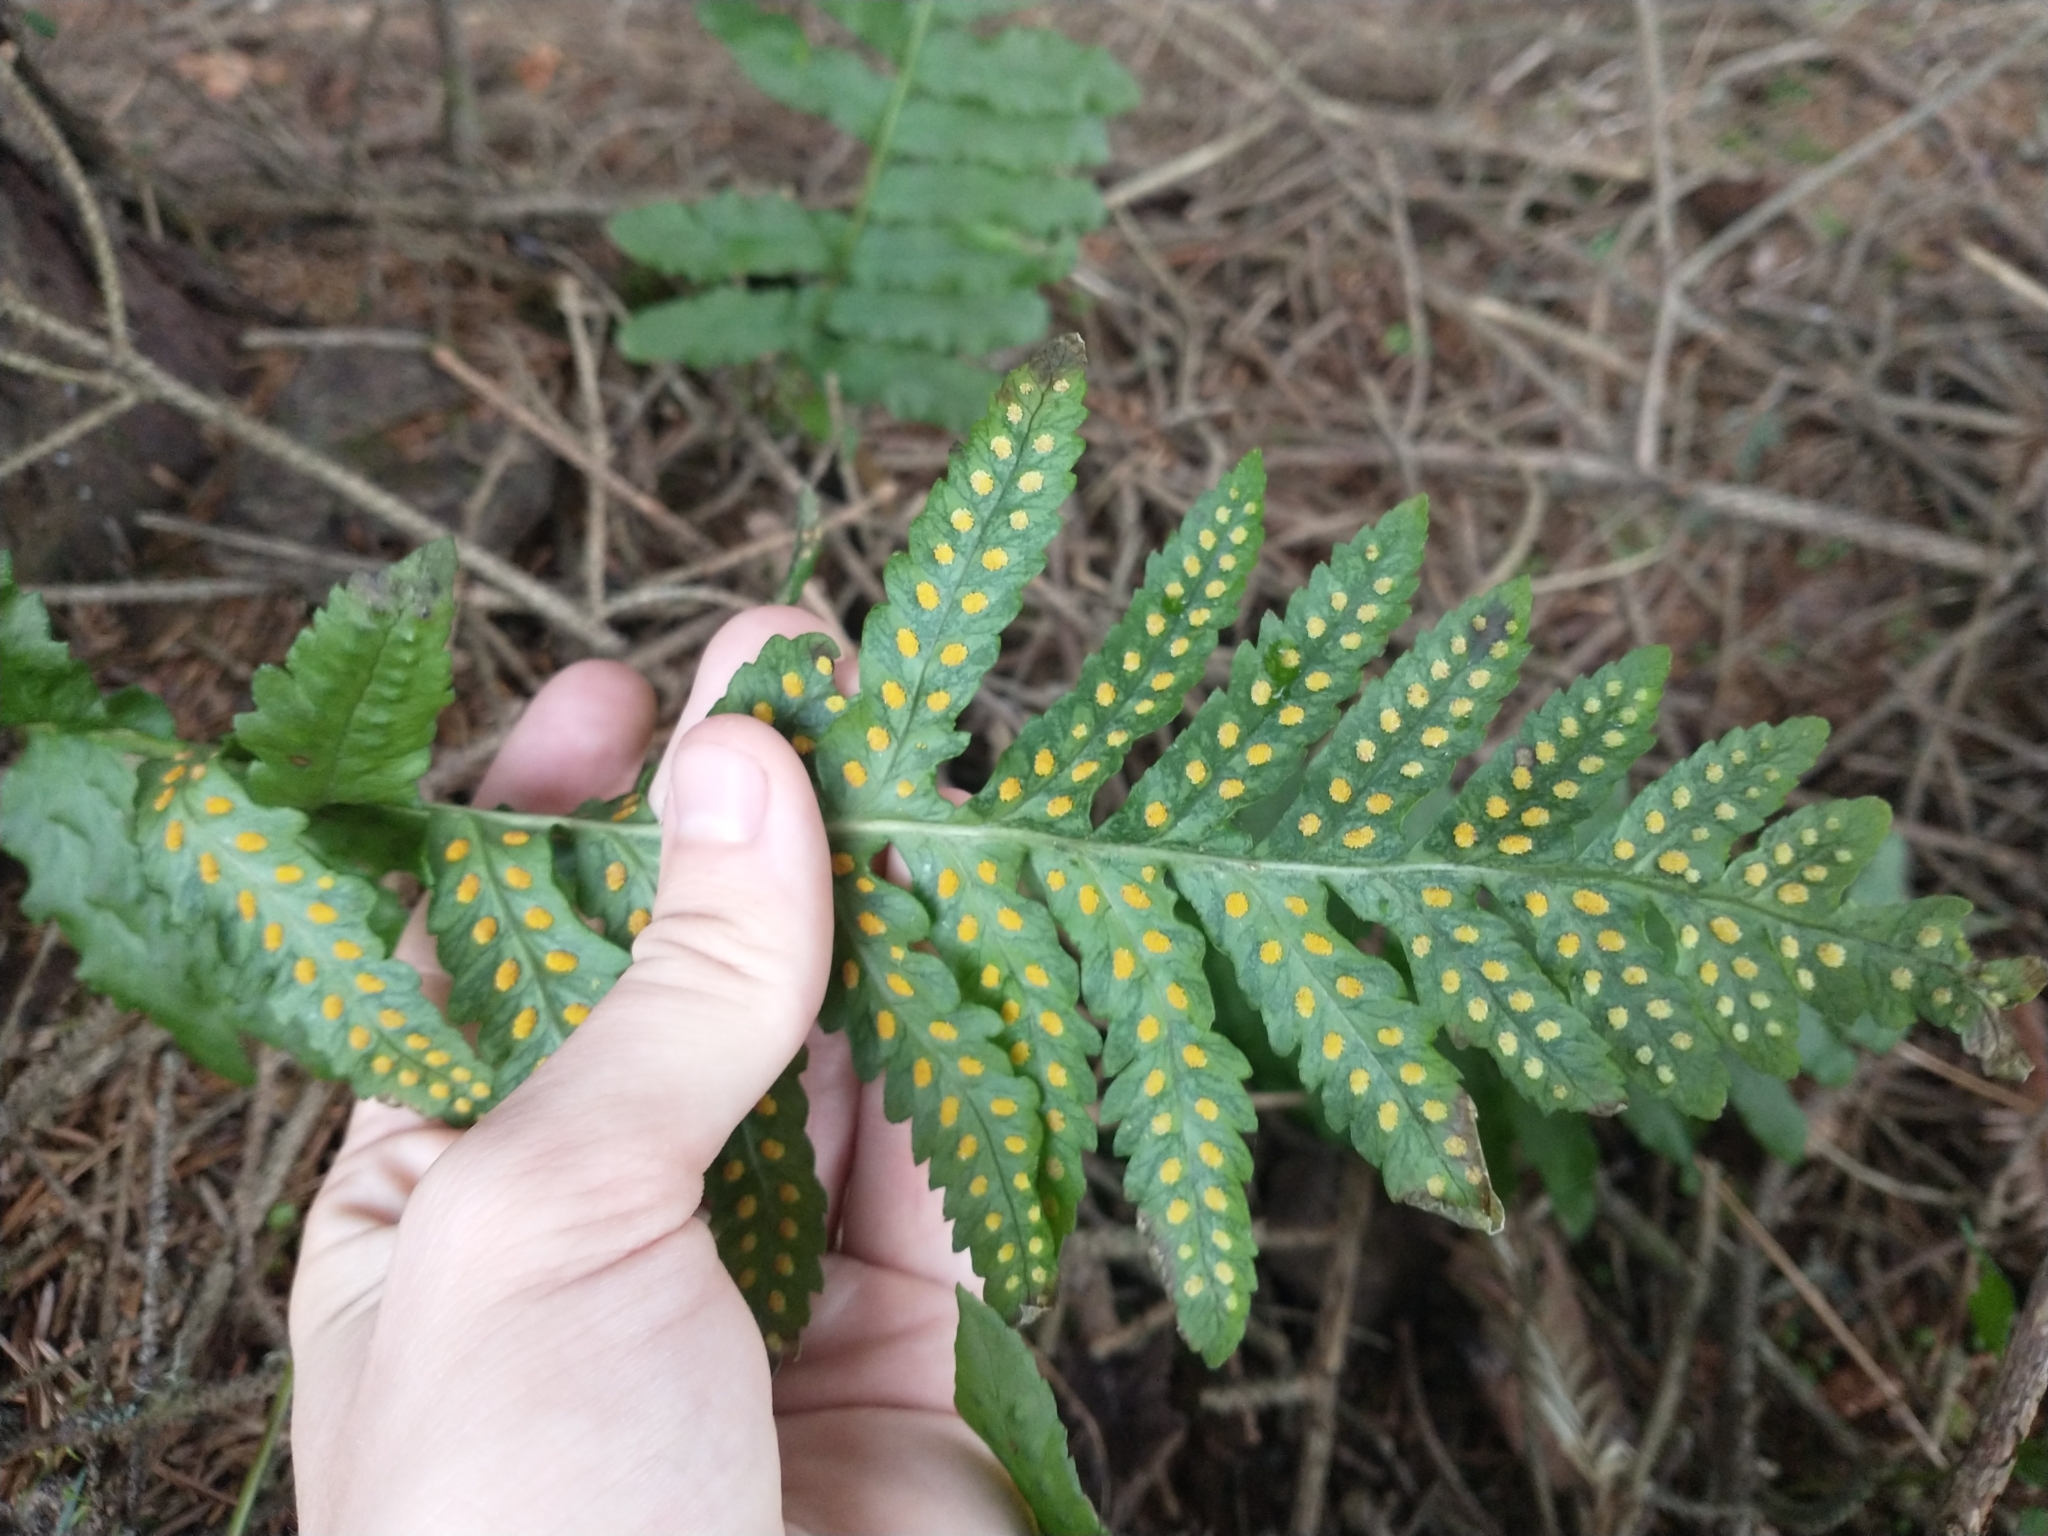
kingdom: Plantae
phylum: Tracheophyta
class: Polypodiopsida
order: Polypodiales
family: Polypodiaceae
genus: Polypodium
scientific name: Polypodium calirhiza
